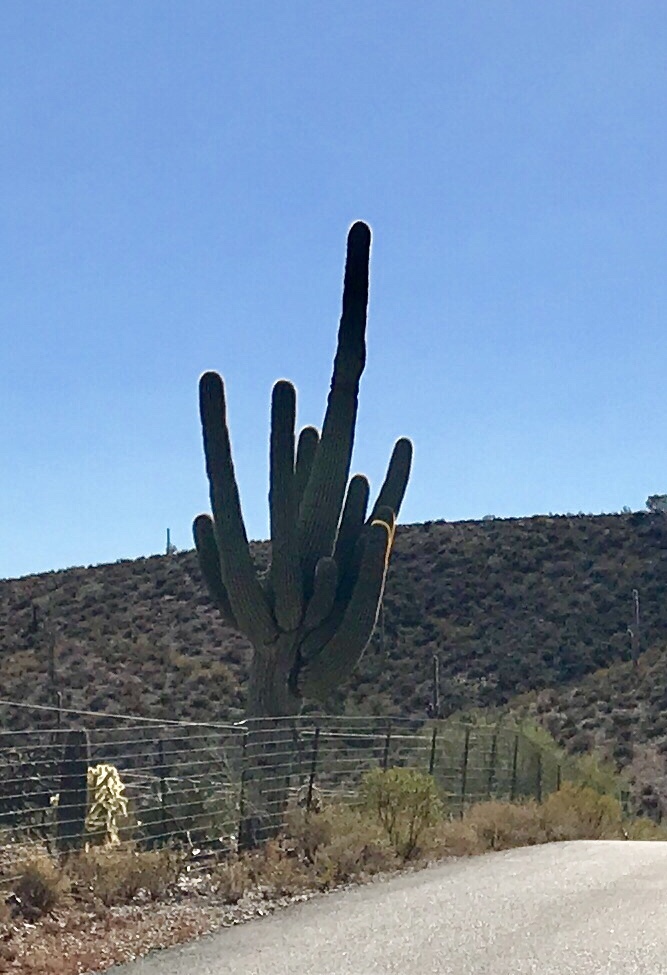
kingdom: Plantae
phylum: Tracheophyta
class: Magnoliopsida
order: Caryophyllales
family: Cactaceae
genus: Carnegiea
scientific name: Carnegiea gigantea
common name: Saguaro
